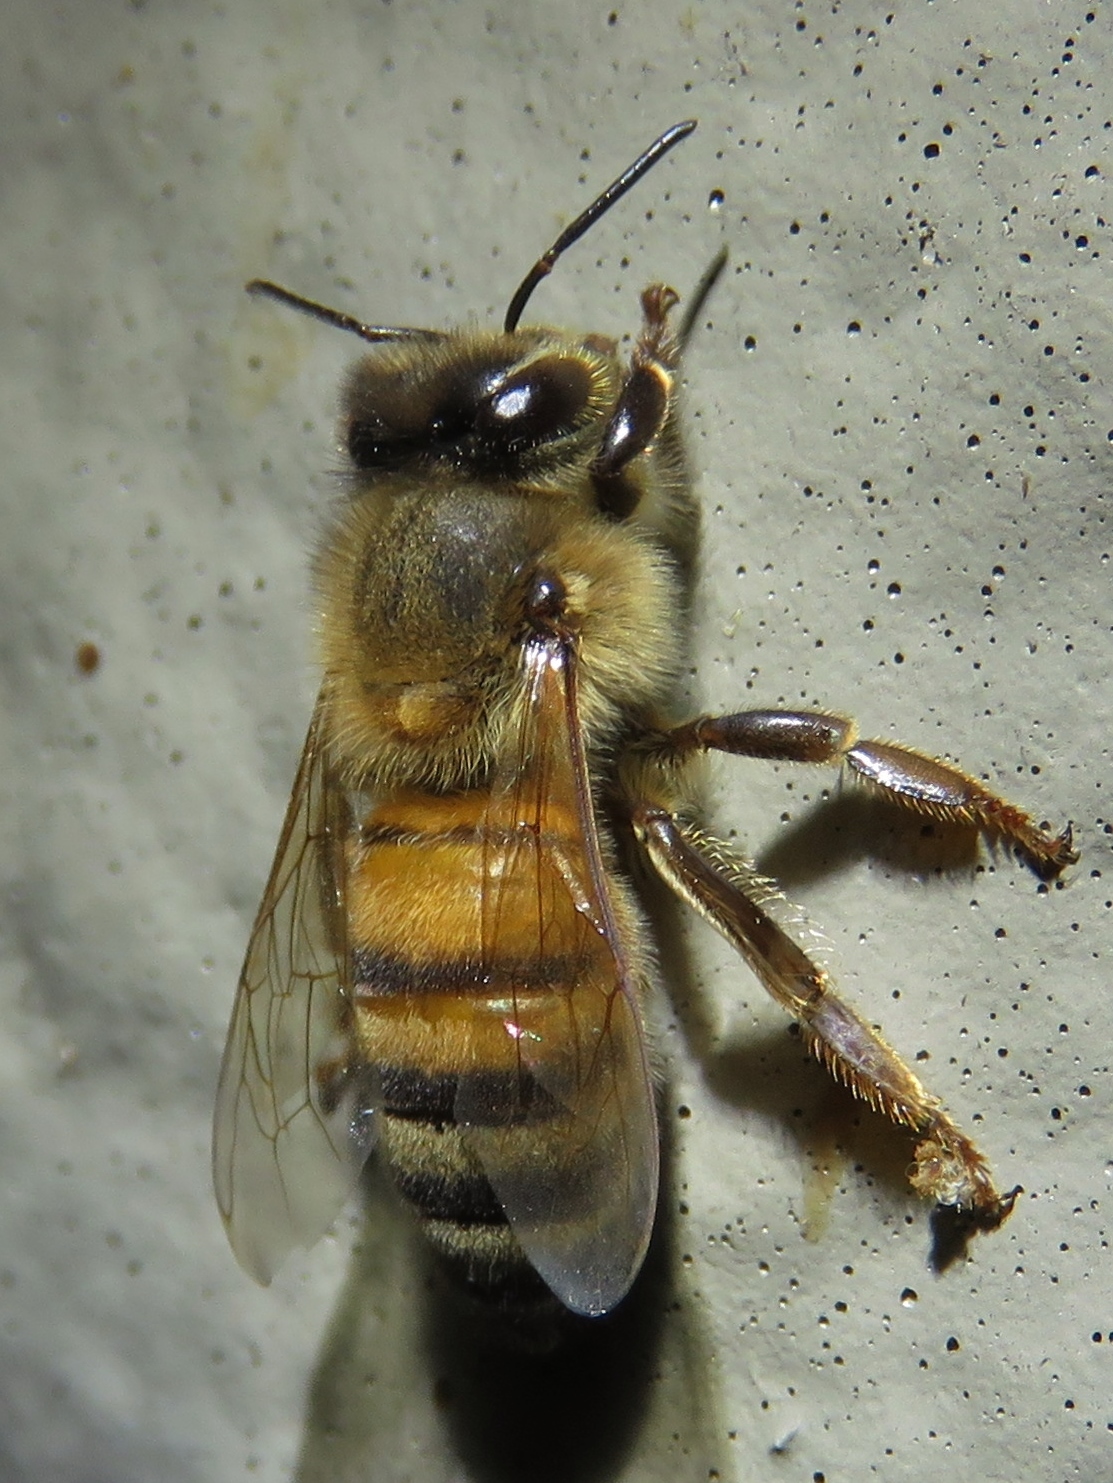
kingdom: Animalia
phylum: Arthropoda
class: Insecta
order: Hymenoptera
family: Apidae
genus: Apis
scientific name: Apis mellifera
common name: Honey bee
